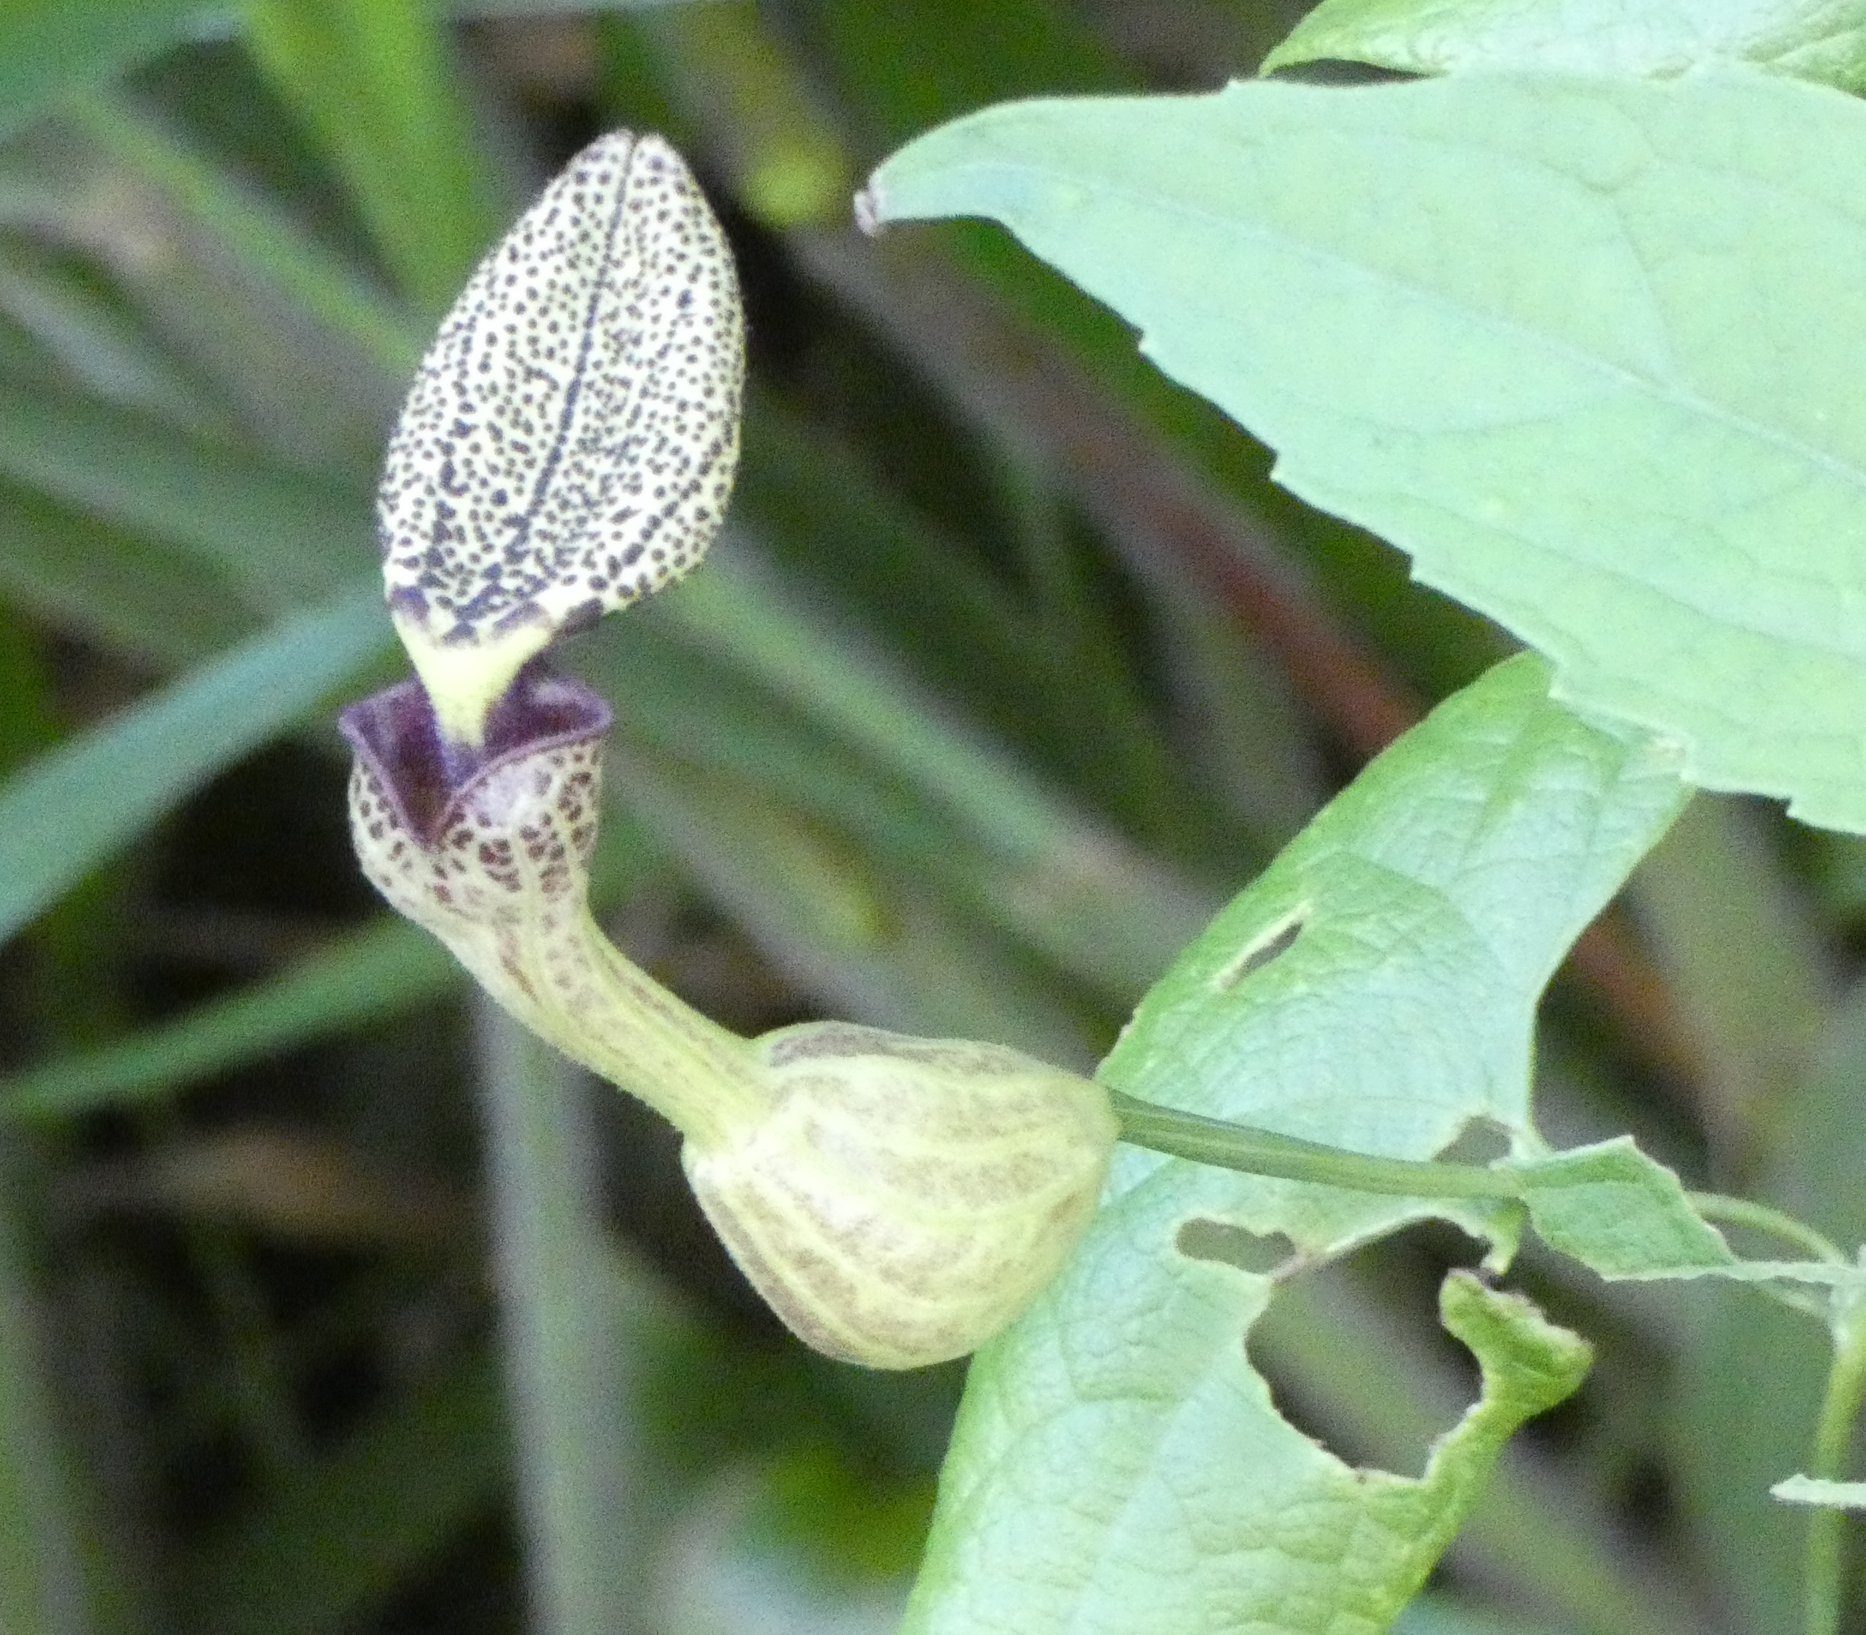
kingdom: Plantae
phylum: Tracheophyta
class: Magnoliopsida
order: Piperales
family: Aristolochiaceae
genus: Aristolochia
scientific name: Aristolochia papillaris
